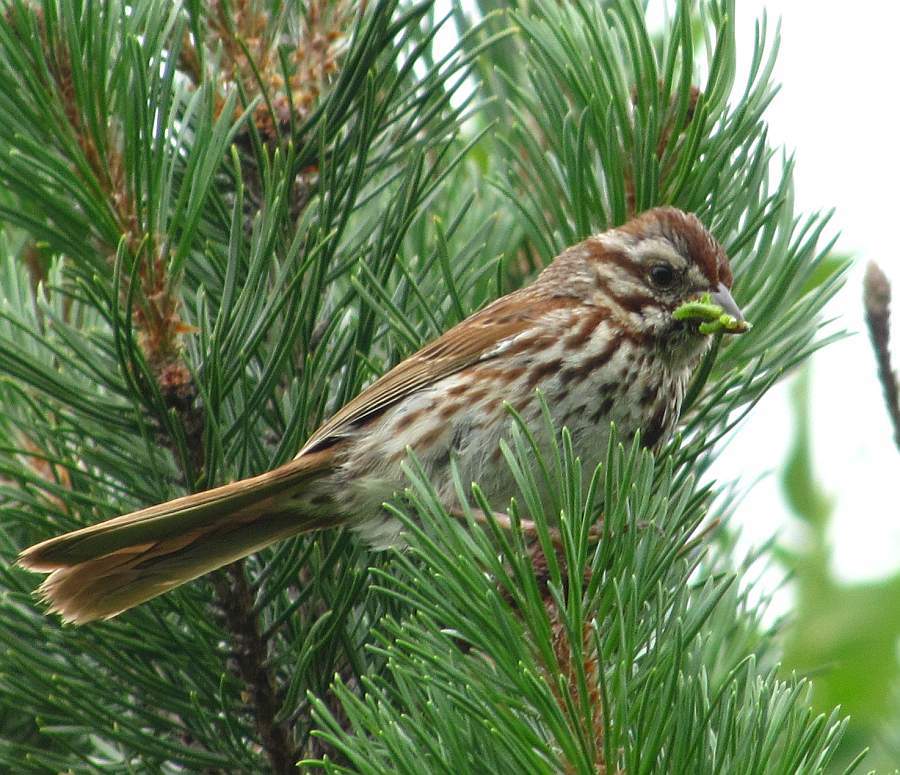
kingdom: Animalia
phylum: Chordata
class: Aves
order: Passeriformes
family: Passerellidae
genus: Melospiza
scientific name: Melospiza melodia
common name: Song sparrow
